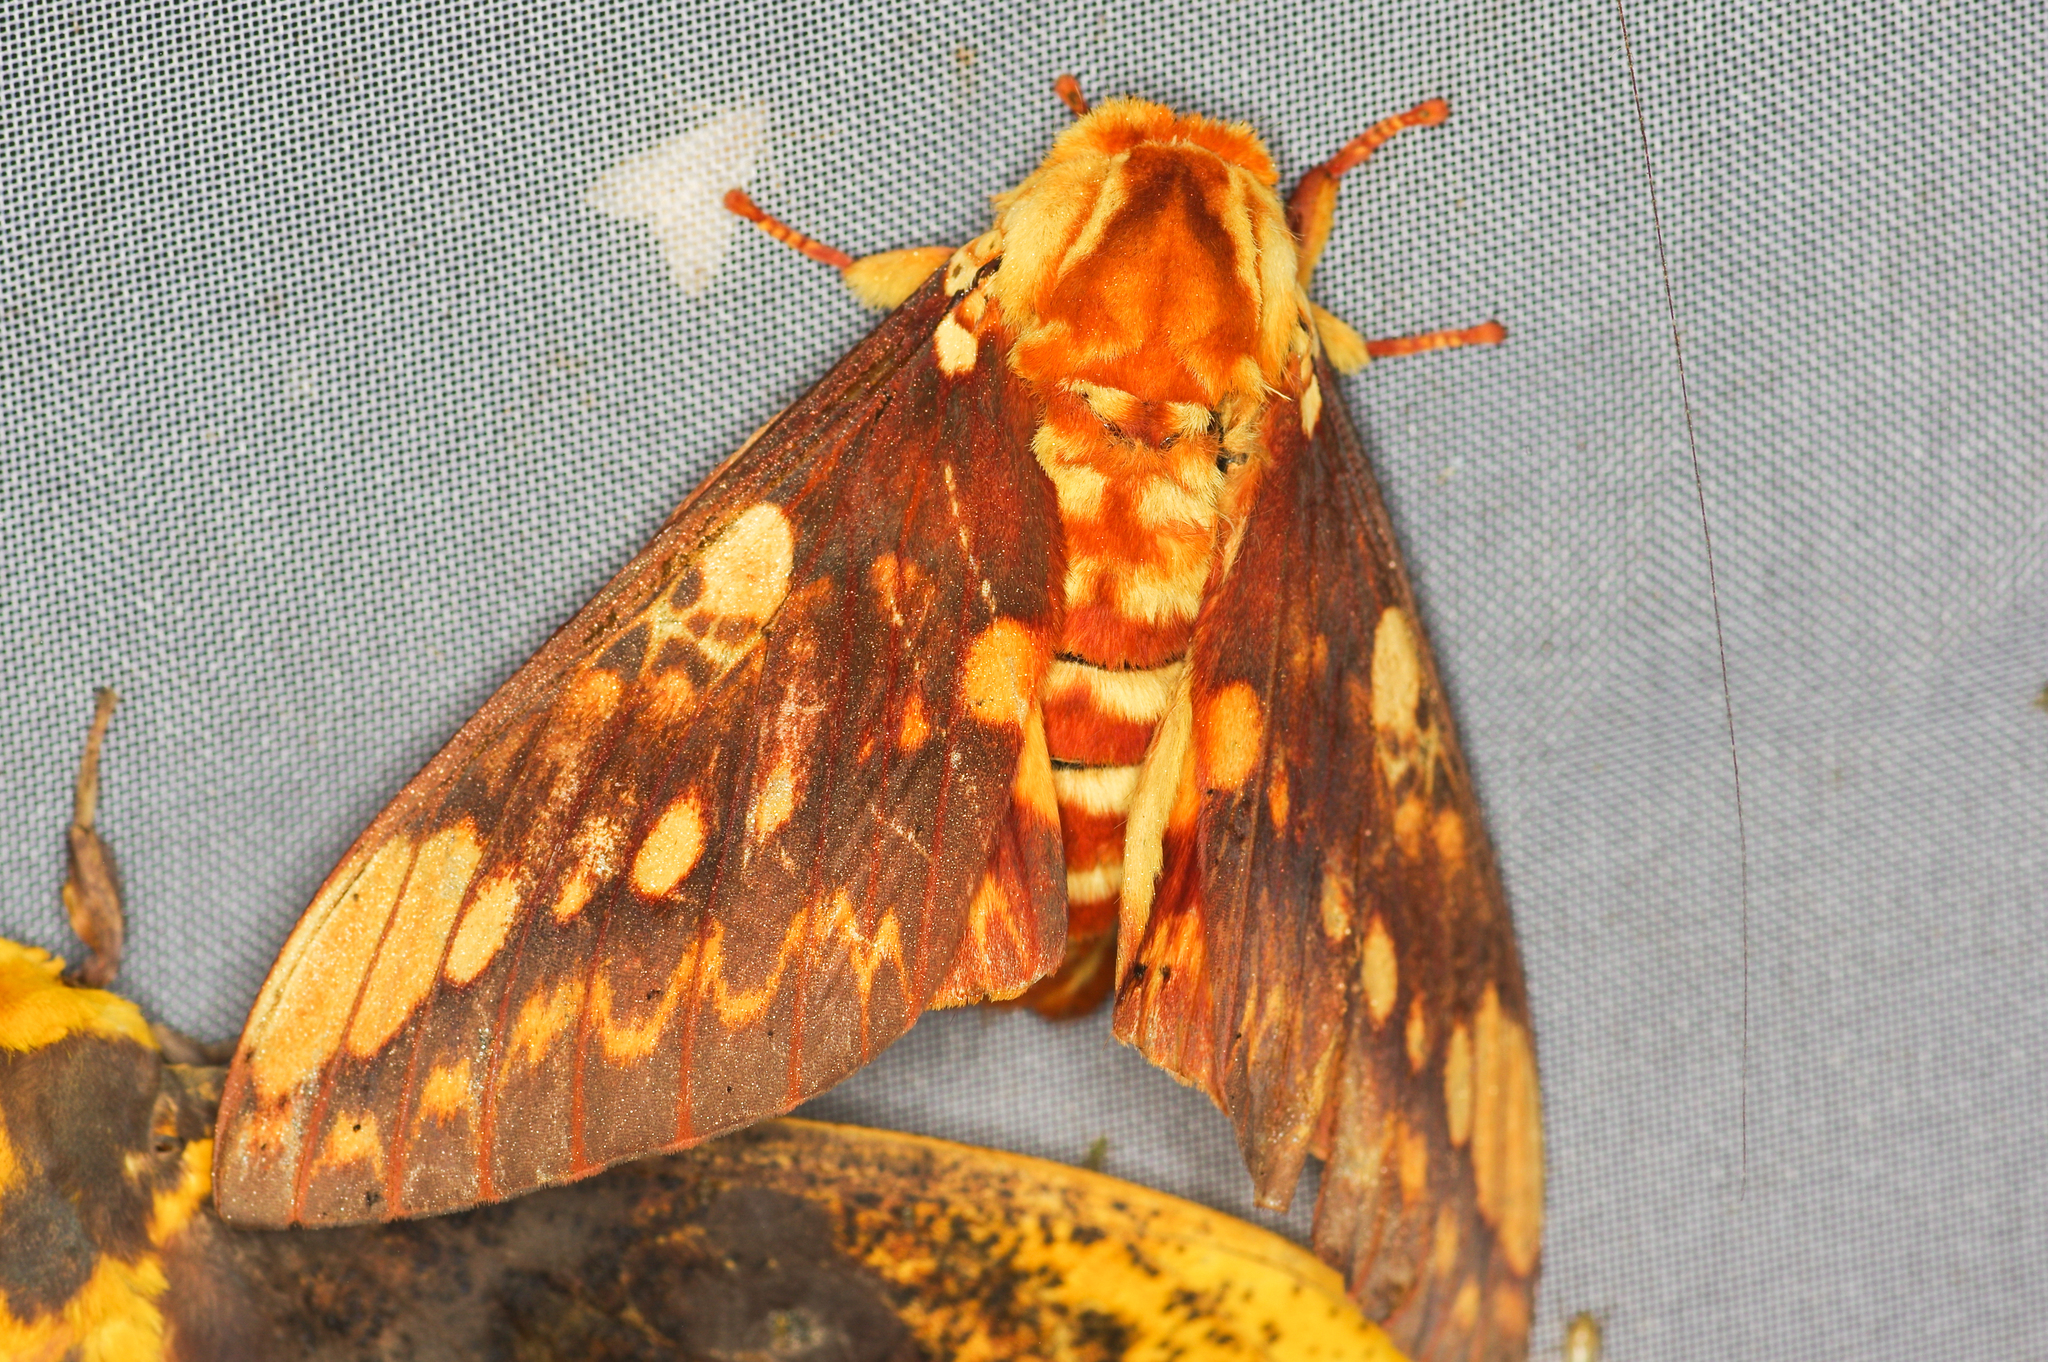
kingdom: Animalia
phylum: Arthropoda
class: Insecta
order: Lepidoptera
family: Saturniidae
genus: Citheronia
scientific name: Citheronia hamifera
